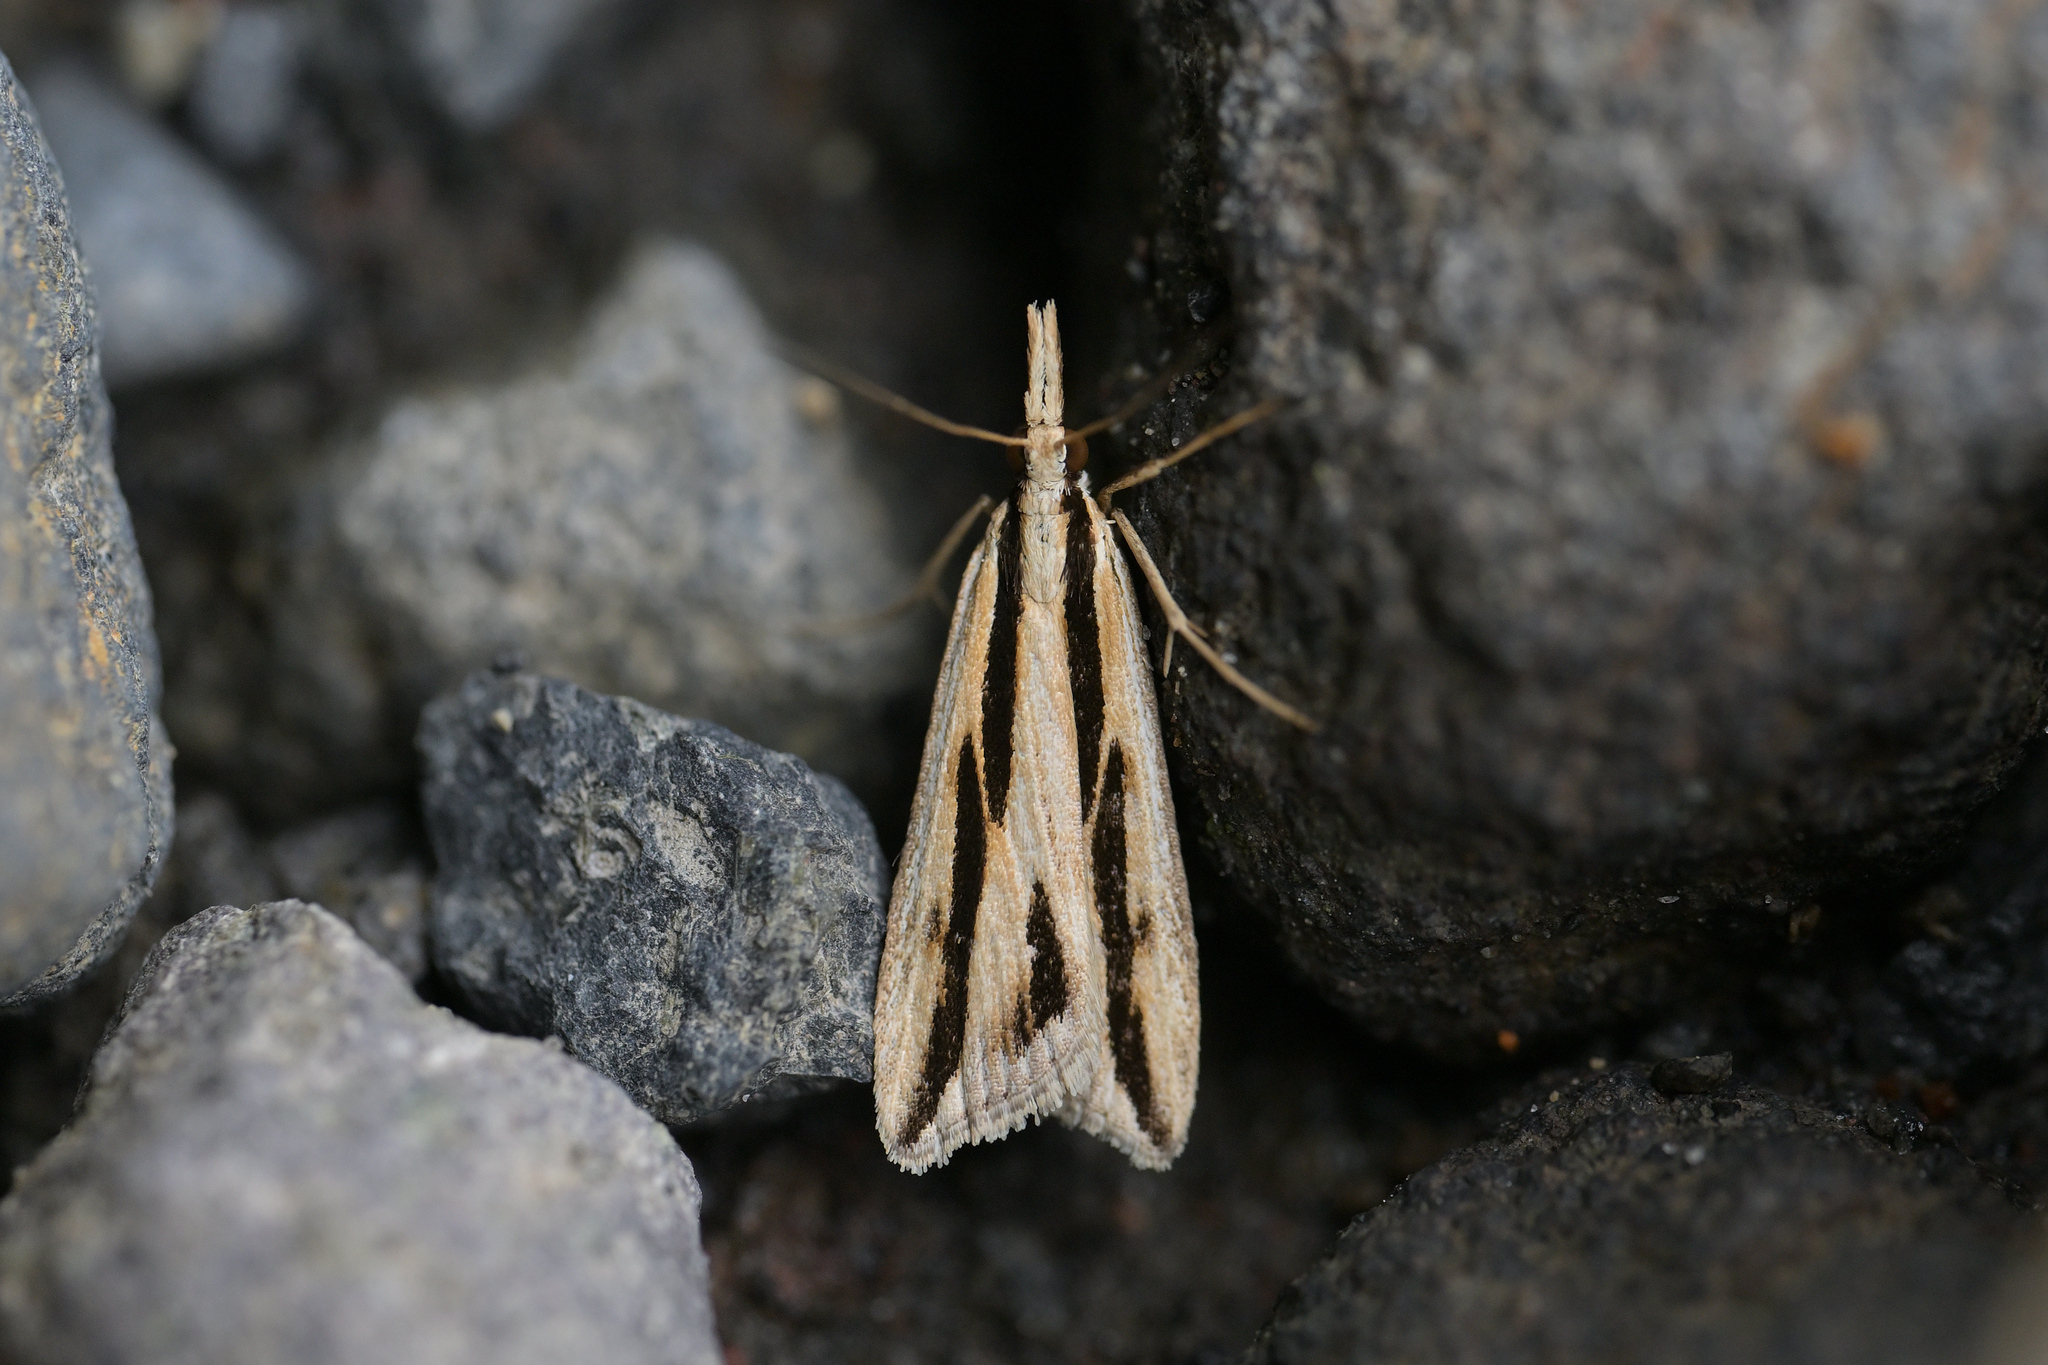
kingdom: Animalia
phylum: Arthropoda
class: Insecta
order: Lepidoptera
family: Crambidae
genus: Eudonia
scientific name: Eudonia trivirgata
